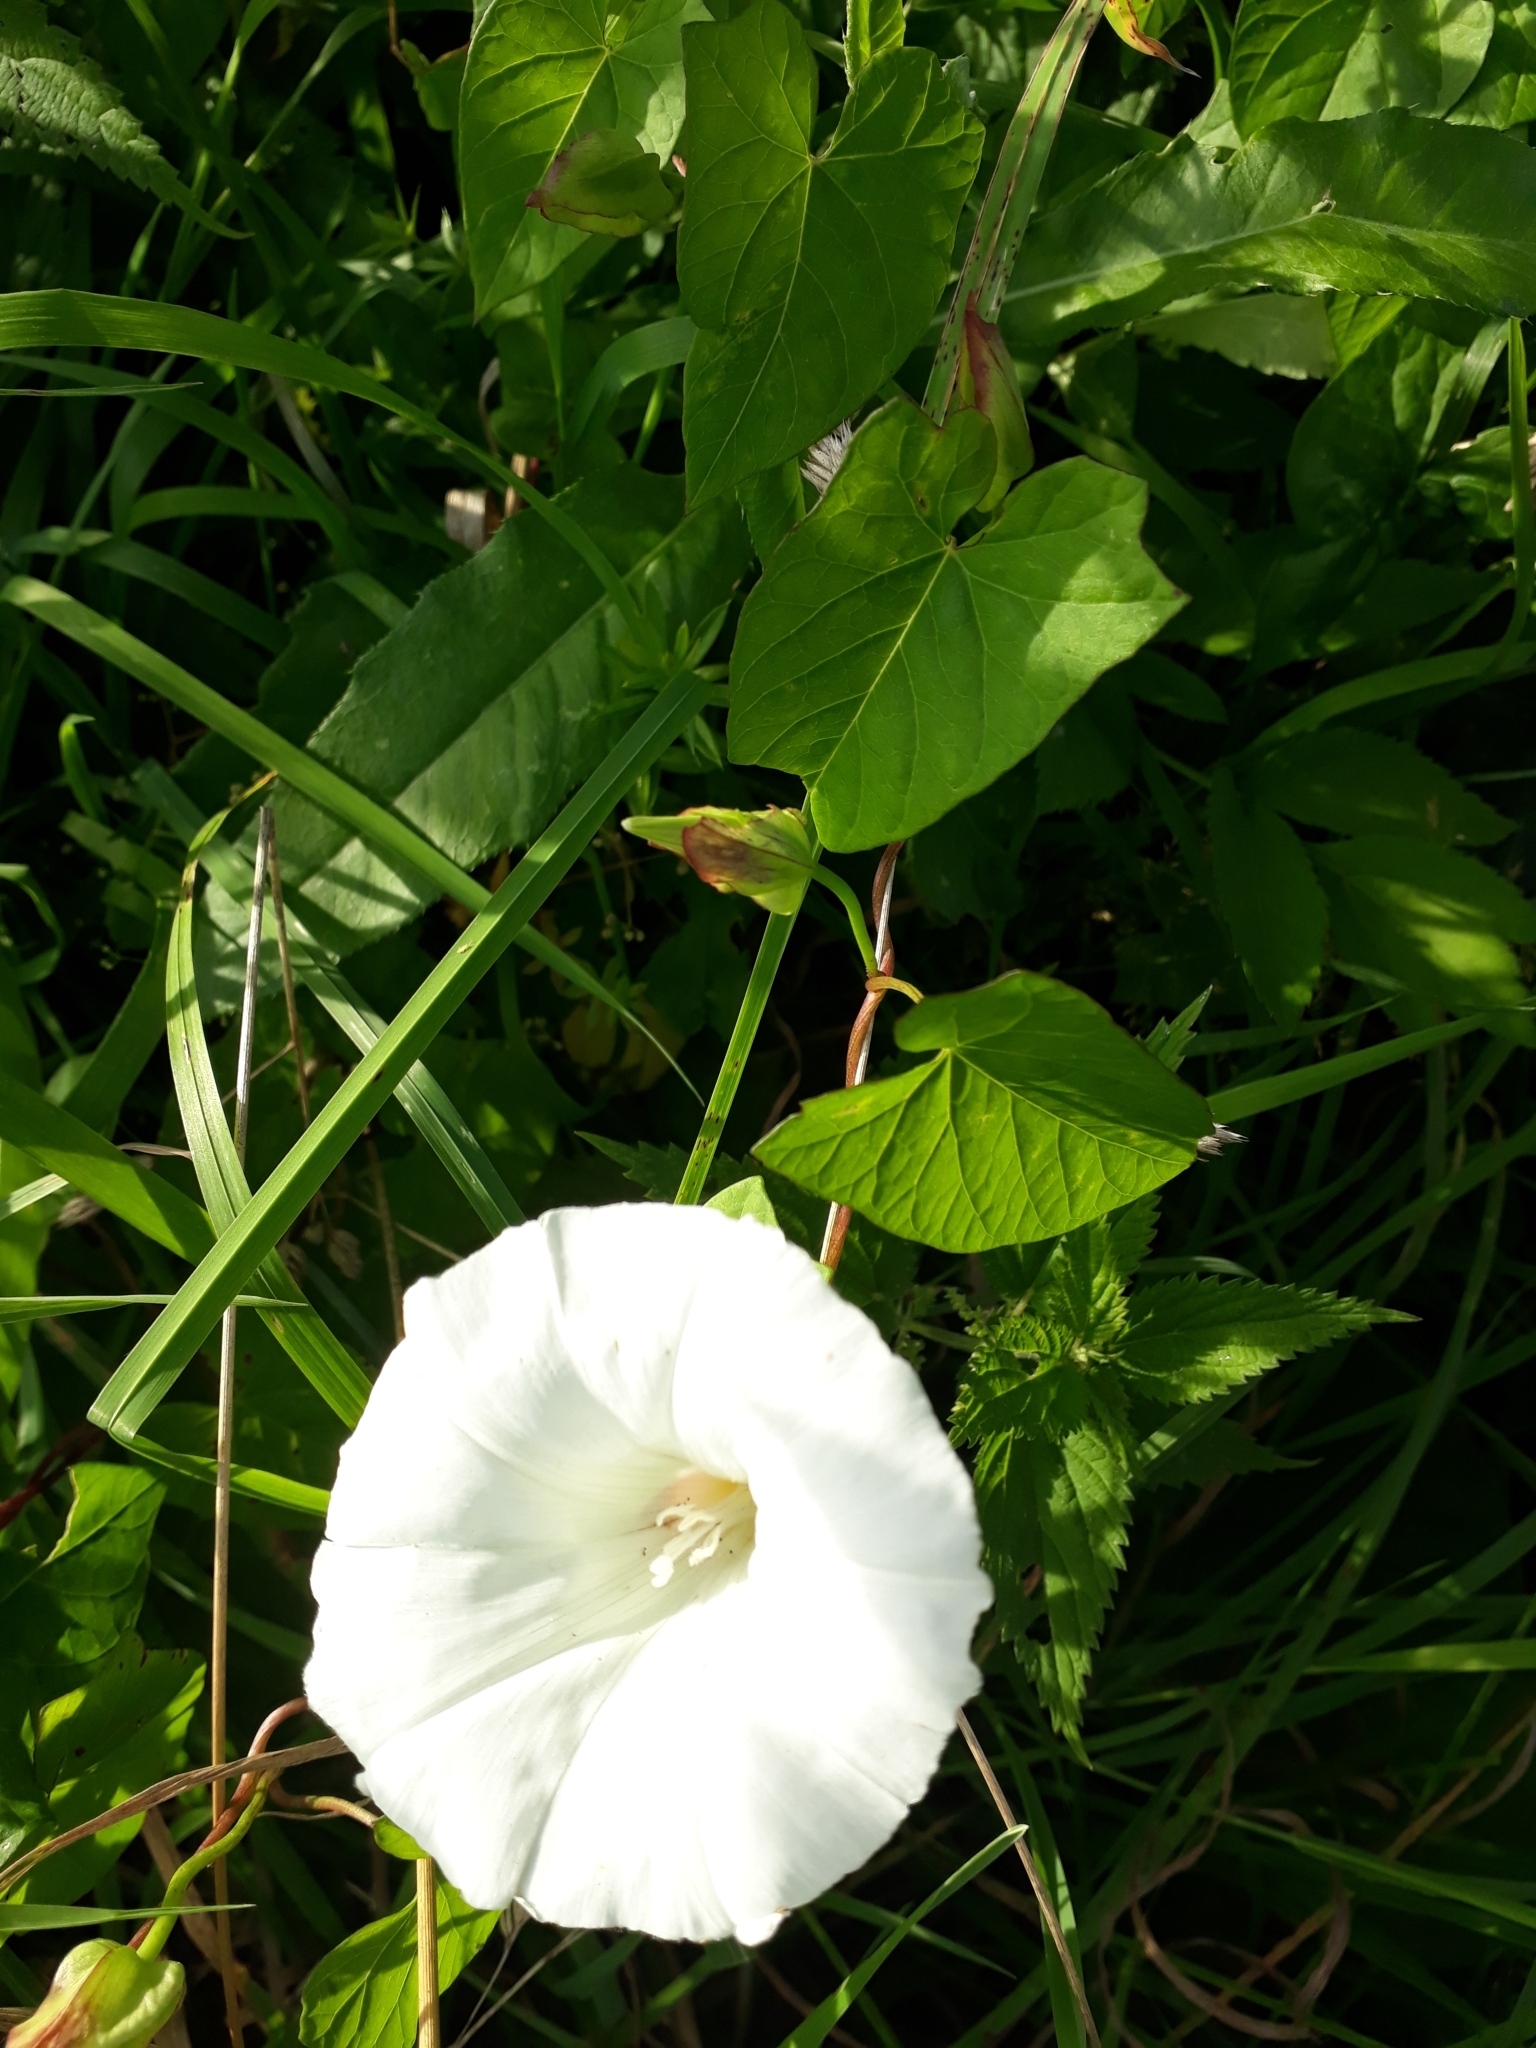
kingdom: Plantae
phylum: Tracheophyta
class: Magnoliopsida
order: Solanales
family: Convolvulaceae
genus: Calystegia
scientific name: Calystegia sepium
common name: Hedge bindweed
